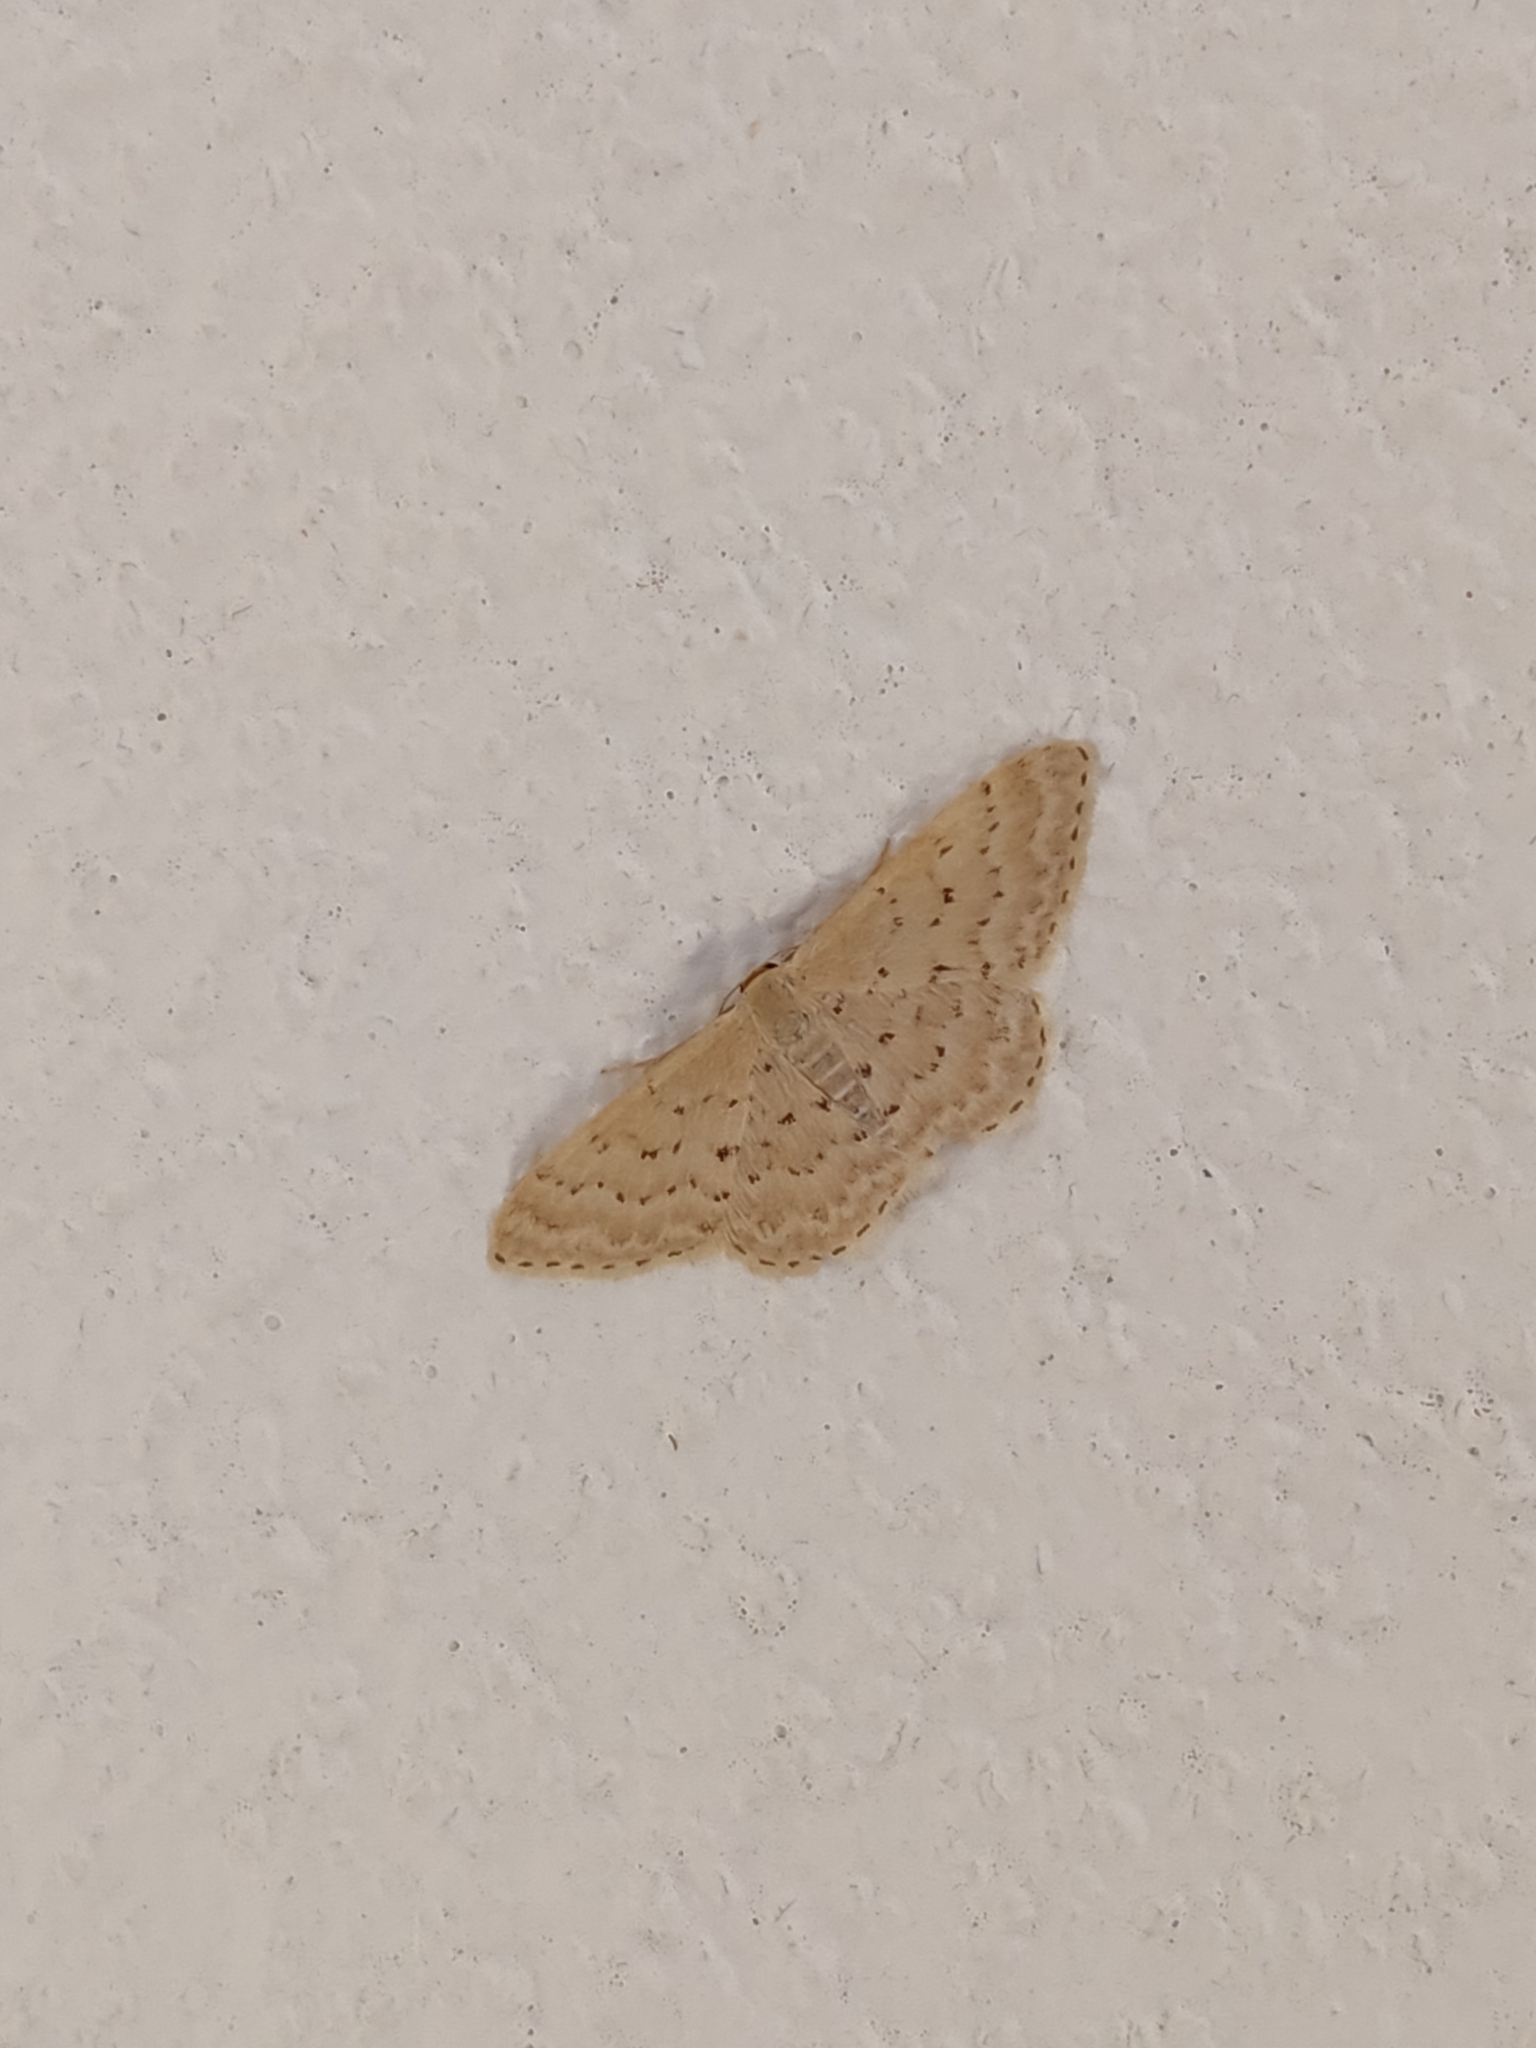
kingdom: Animalia
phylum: Arthropoda
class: Insecta
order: Lepidoptera
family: Geometridae
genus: Idaea
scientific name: Idaea philocosma
